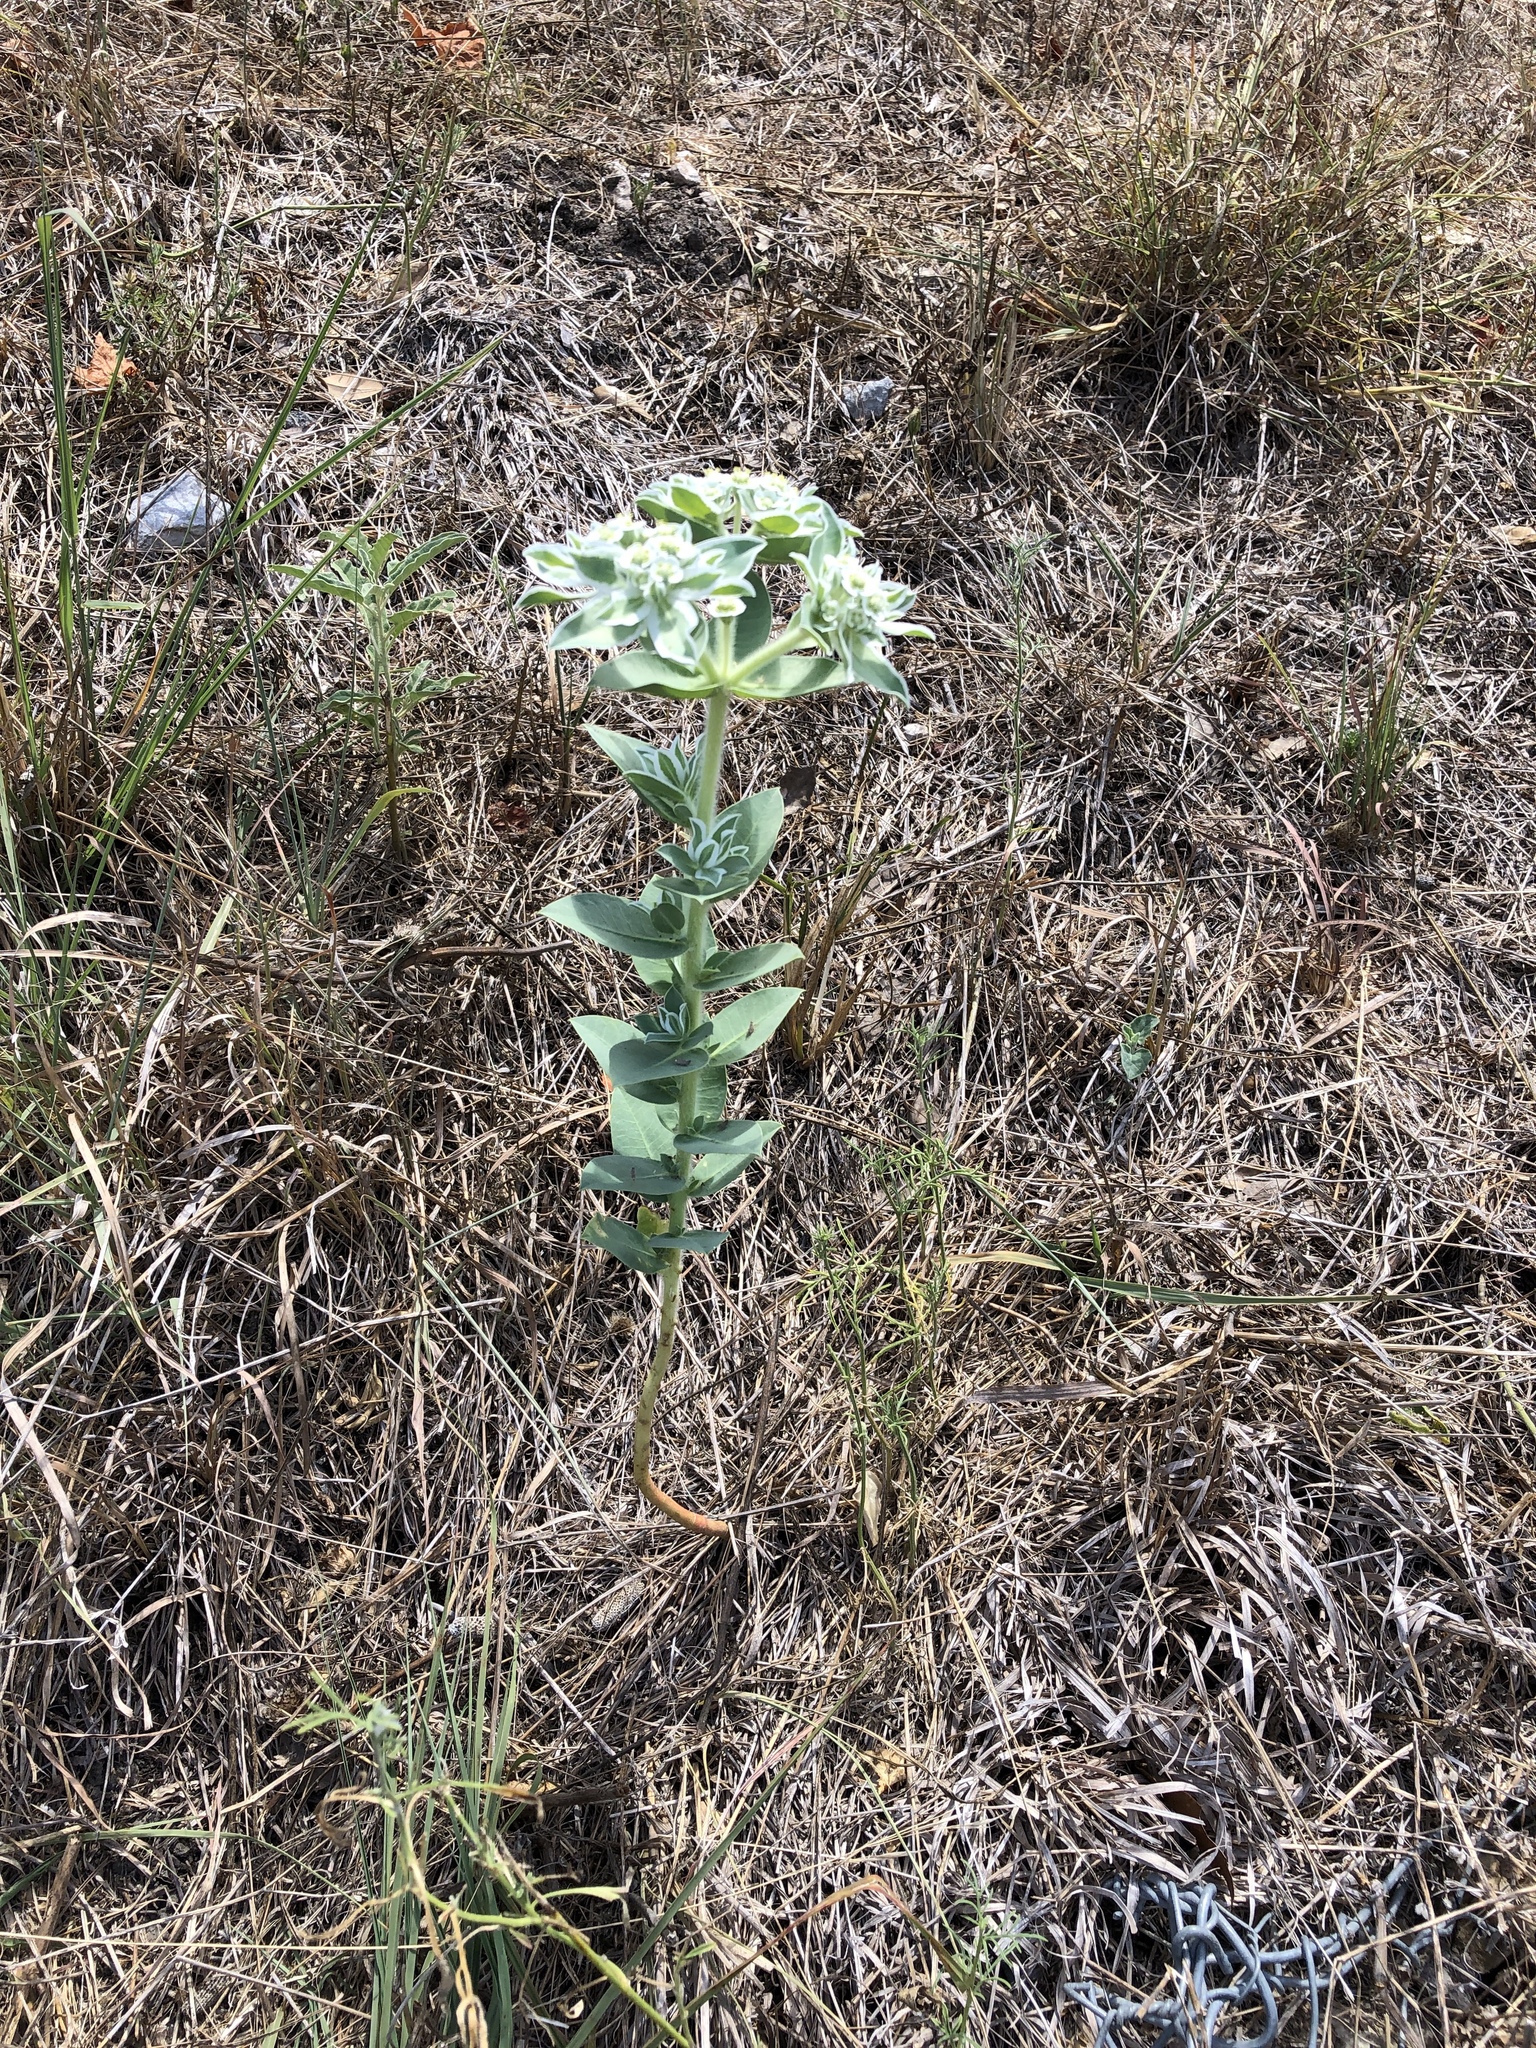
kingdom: Plantae
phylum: Tracheophyta
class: Magnoliopsida
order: Malpighiales
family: Euphorbiaceae
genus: Euphorbia
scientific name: Euphorbia marginata
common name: Ghostweed
